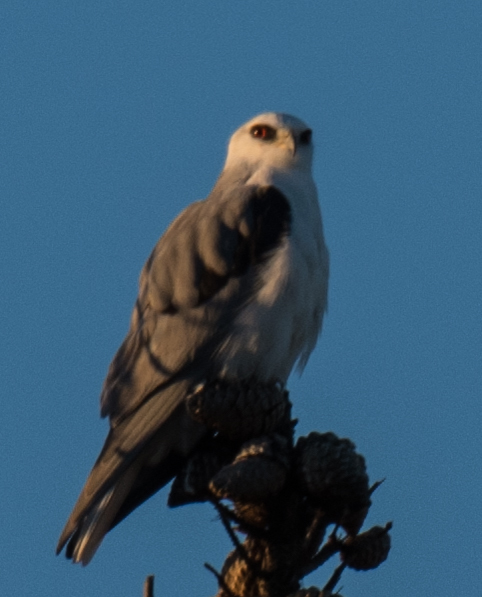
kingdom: Animalia
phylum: Chordata
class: Aves
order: Accipitriformes
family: Accipitridae
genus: Elanus
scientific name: Elanus leucurus
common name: White-tailed kite
